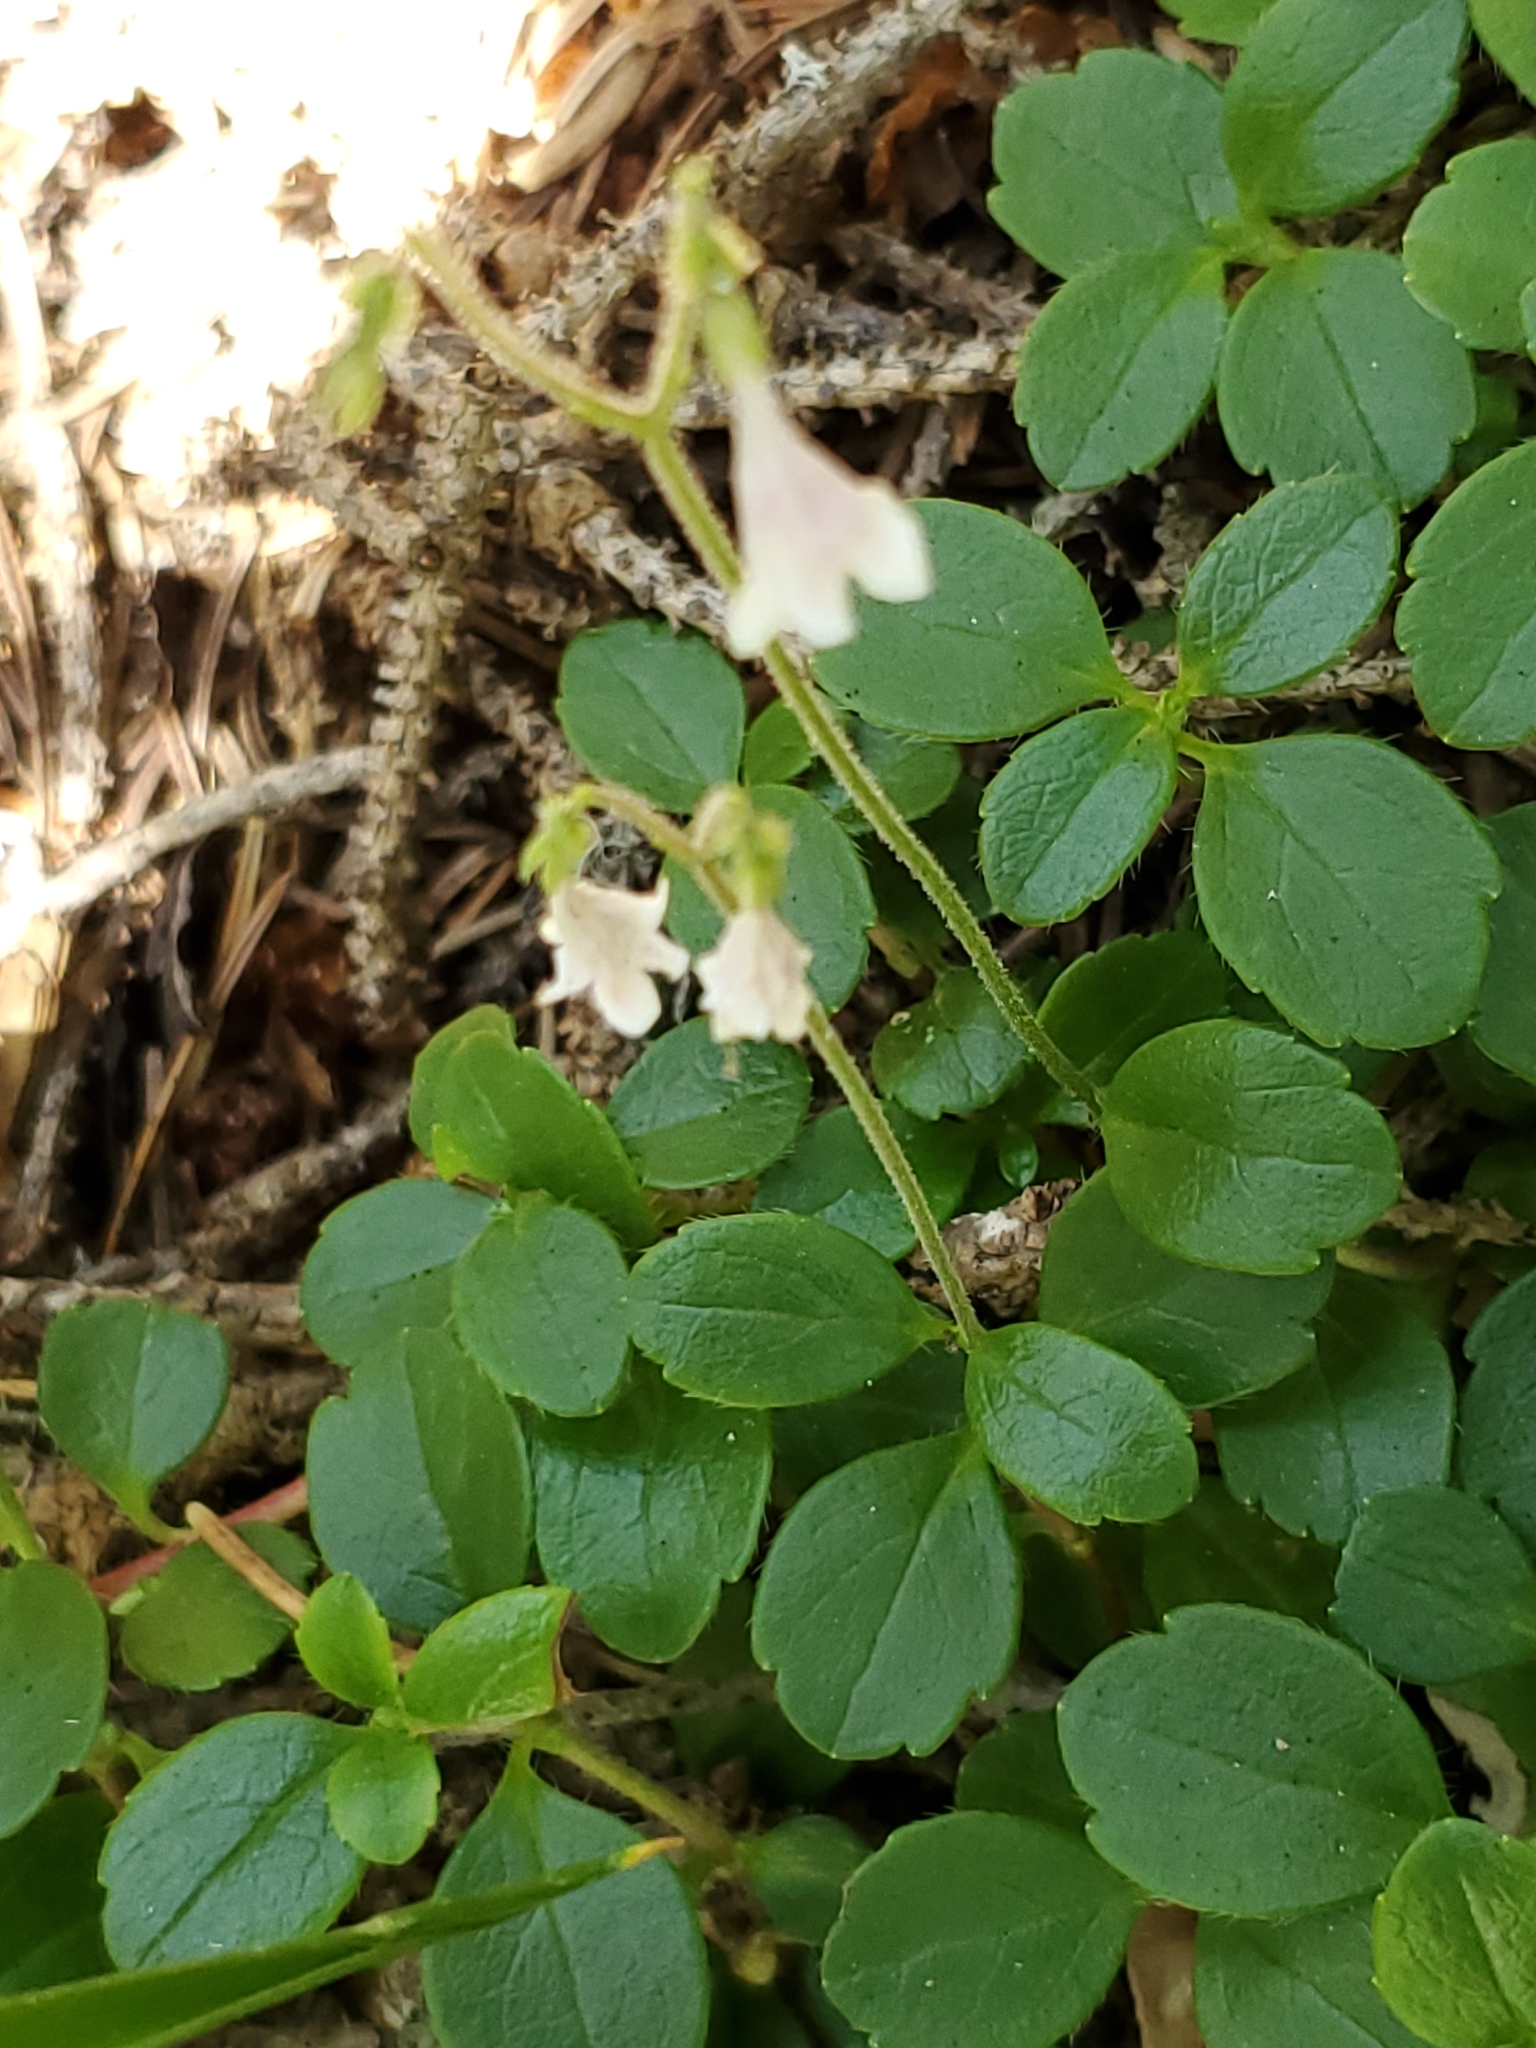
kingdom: Plantae
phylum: Tracheophyta
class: Magnoliopsida
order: Dipsacales
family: Caprifoliaceae
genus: Linnaea
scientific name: Linnaea borealis
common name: Twinflower
